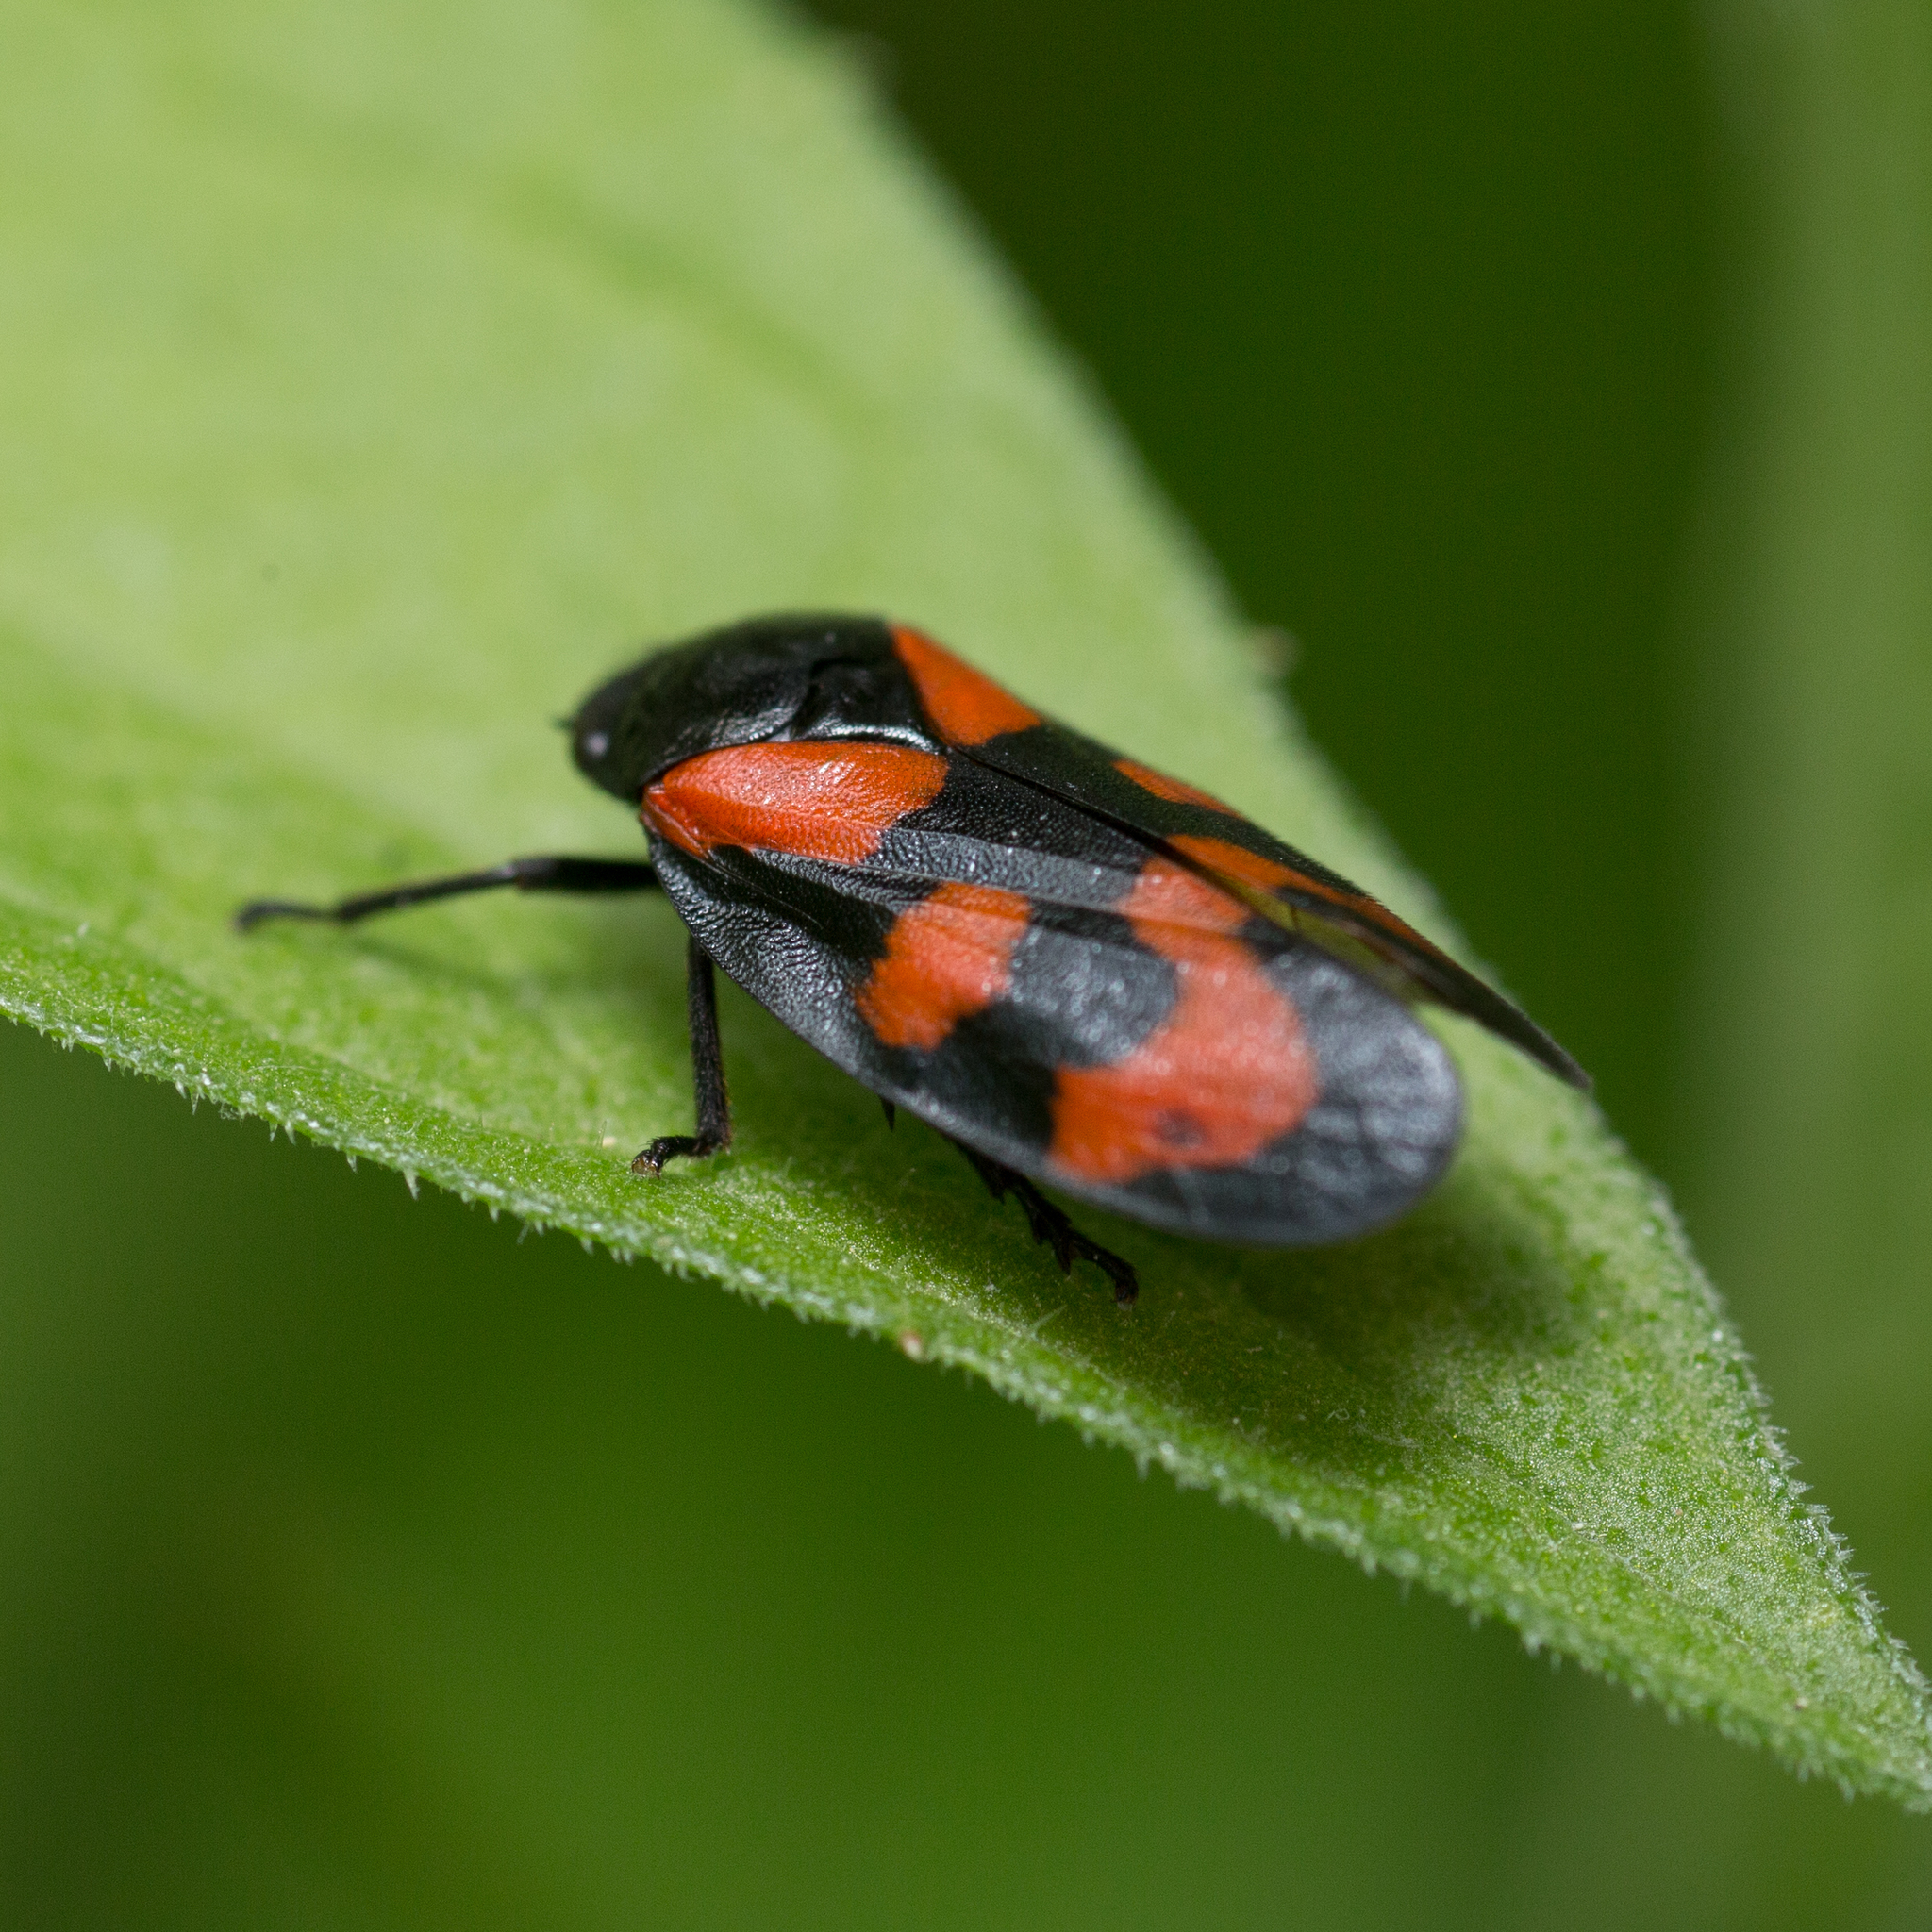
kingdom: Animalia
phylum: Arthropoda
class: Insecta
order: Hemiptera
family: Cercopidae
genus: Cercopis
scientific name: Cercopis vulnerata
